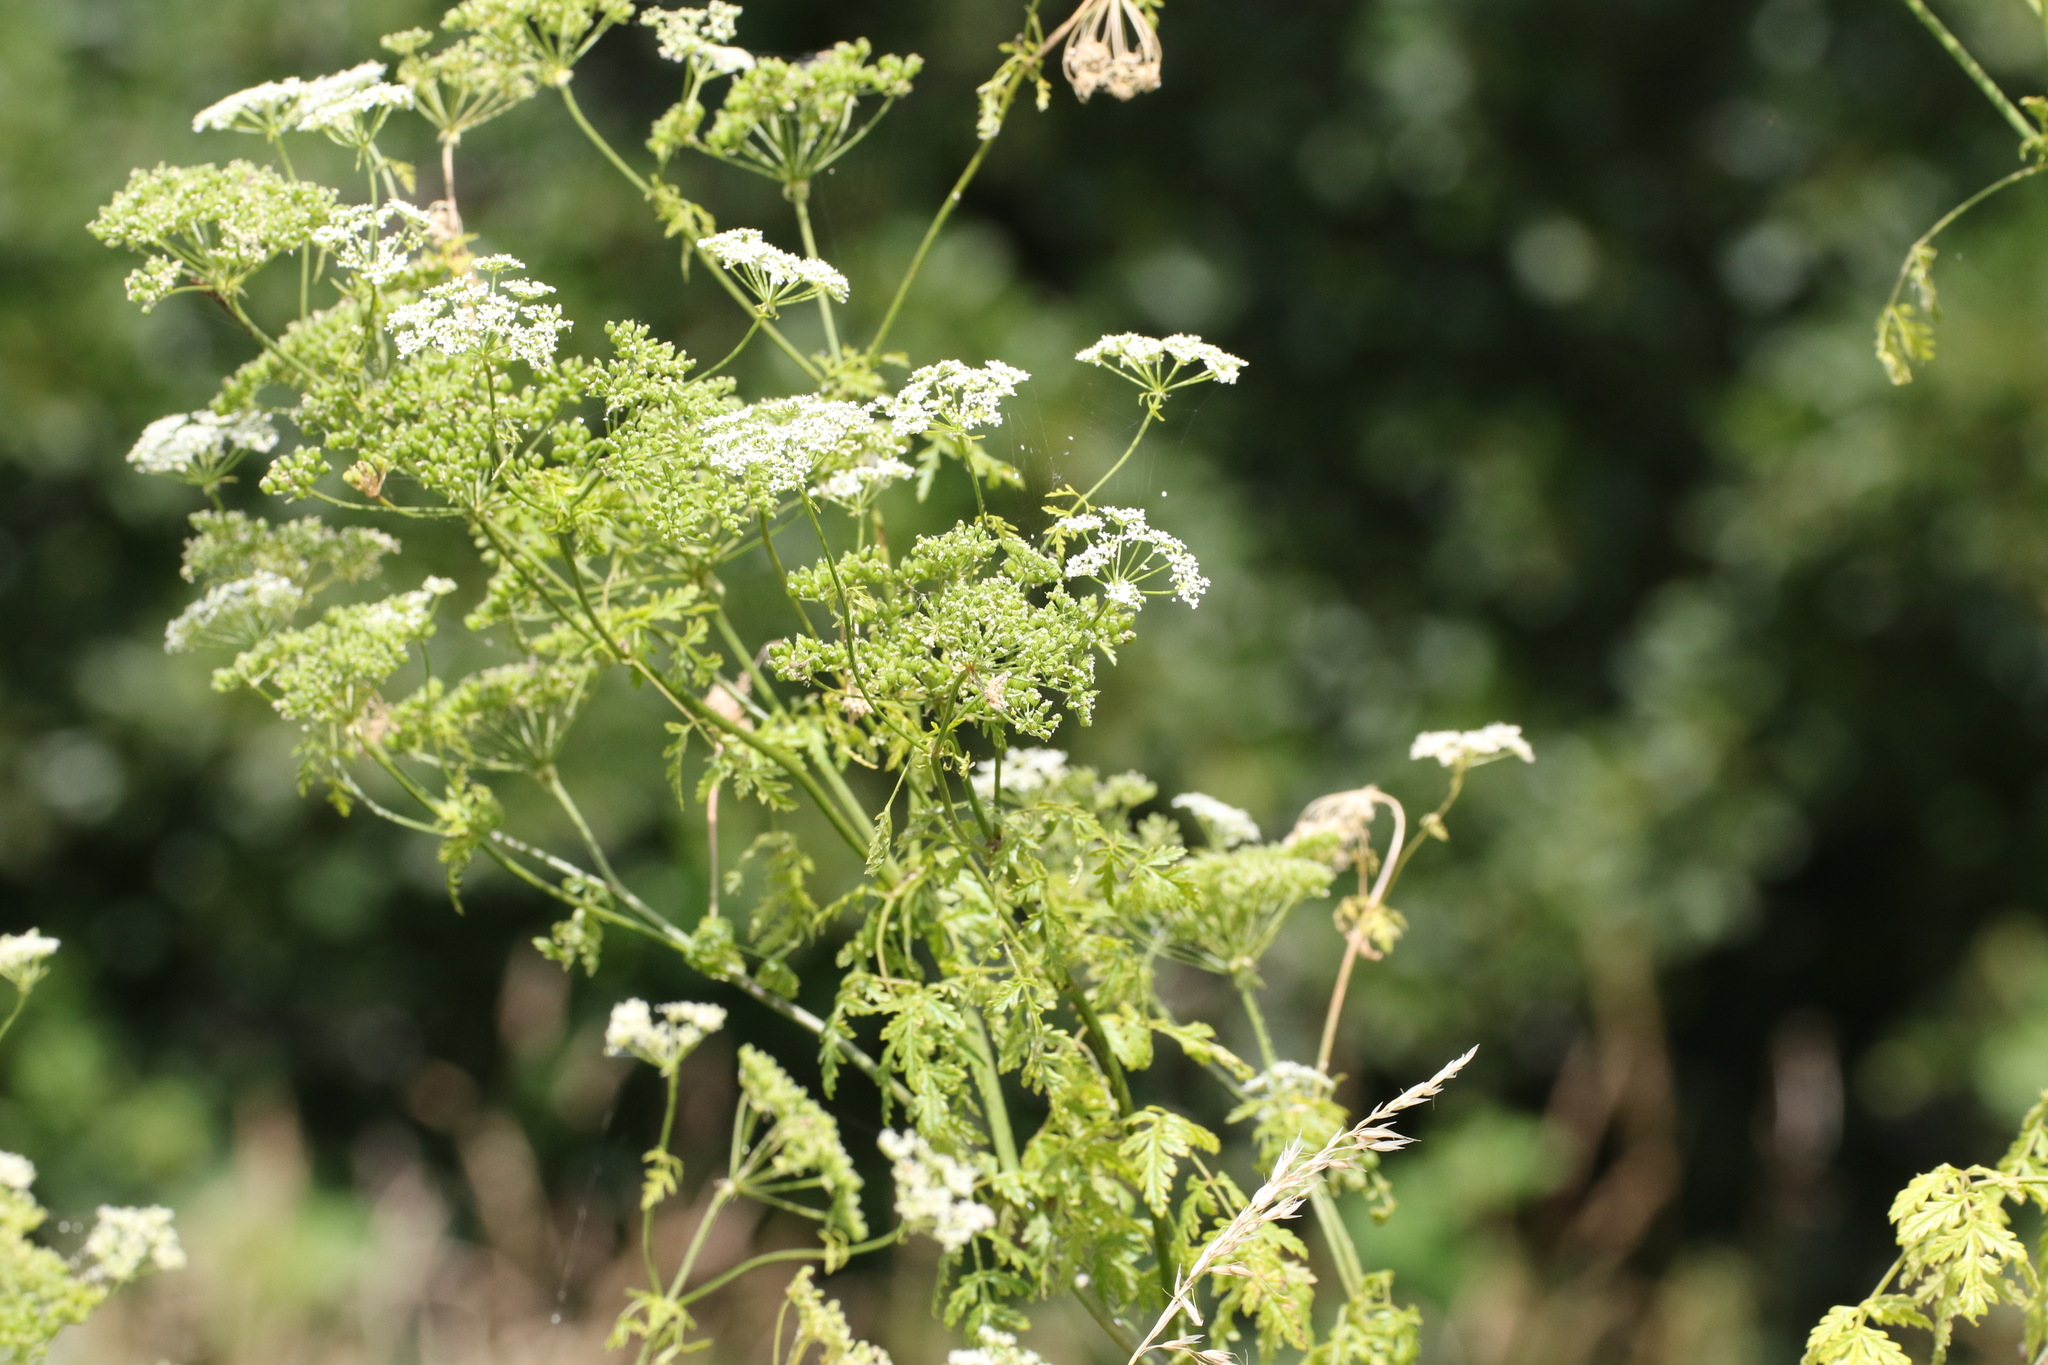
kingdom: Plantae
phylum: Tracheophyta
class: Magnoliopsida
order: Apiales
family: Apiaceae
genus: Conium
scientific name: Conium maculatum
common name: Hemlock
